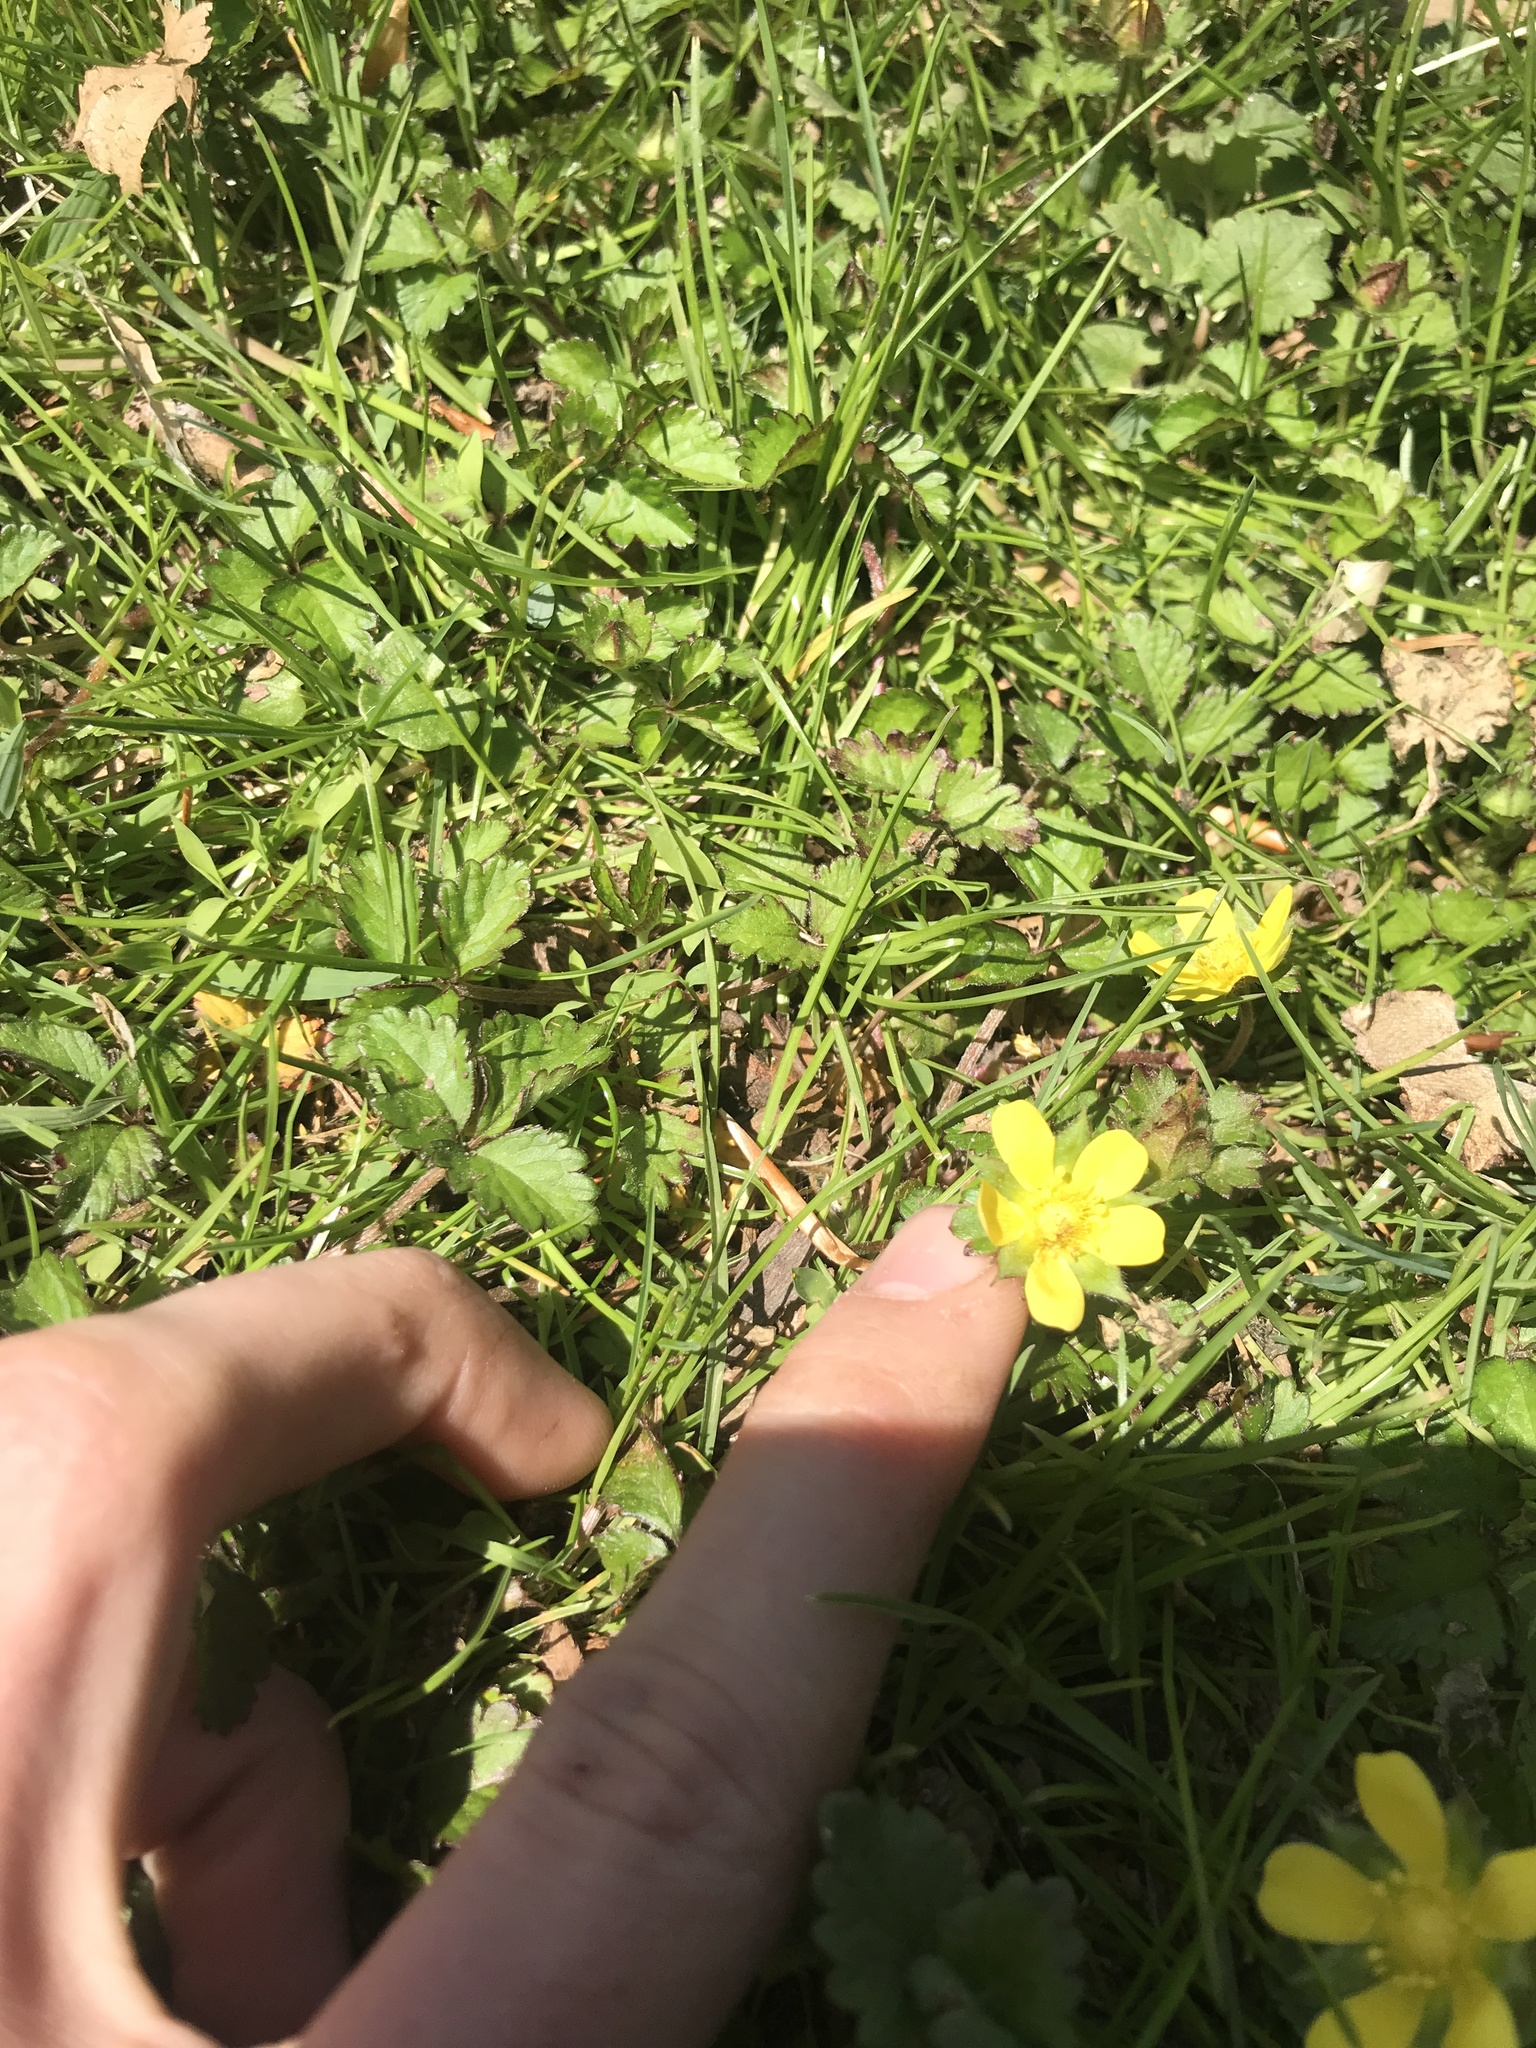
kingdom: Plantae
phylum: Tracheophyta
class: Magnoliopsida
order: Rosales
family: Rosaceae
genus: Potentilla
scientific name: Potentilla indica
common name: Yellow-flowered strawberry
